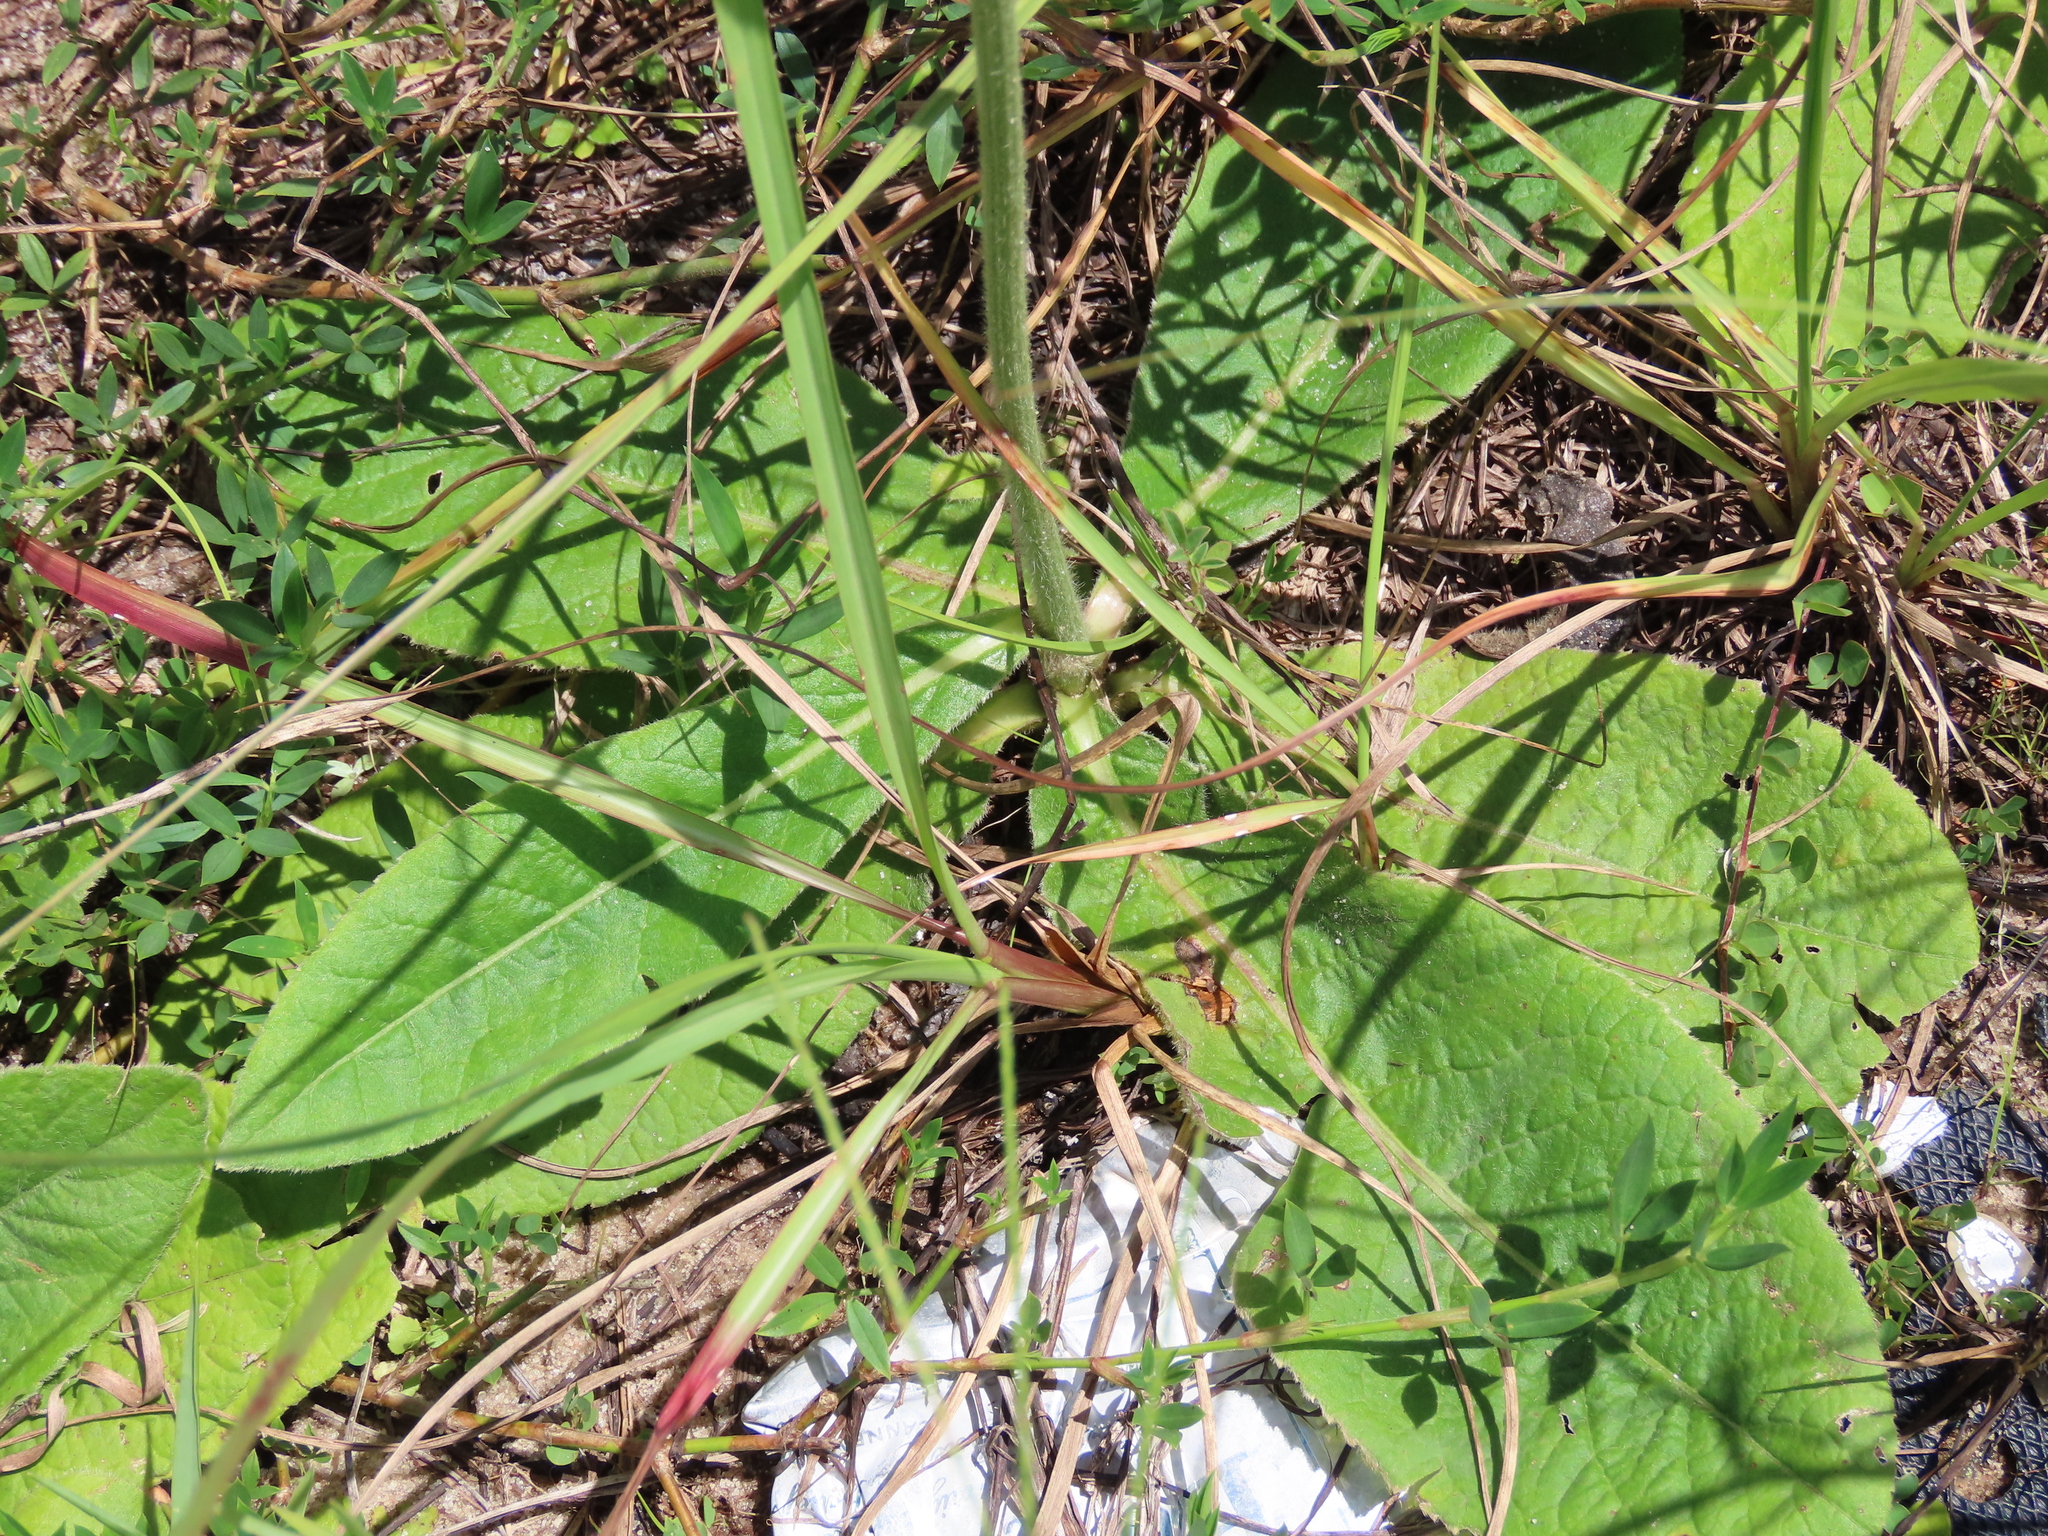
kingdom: Plantae
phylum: Tracheophyta
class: Magnoliopsida
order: Asterales
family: Asteraceae
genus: Elephantopus
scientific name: Elephantopus elatus
